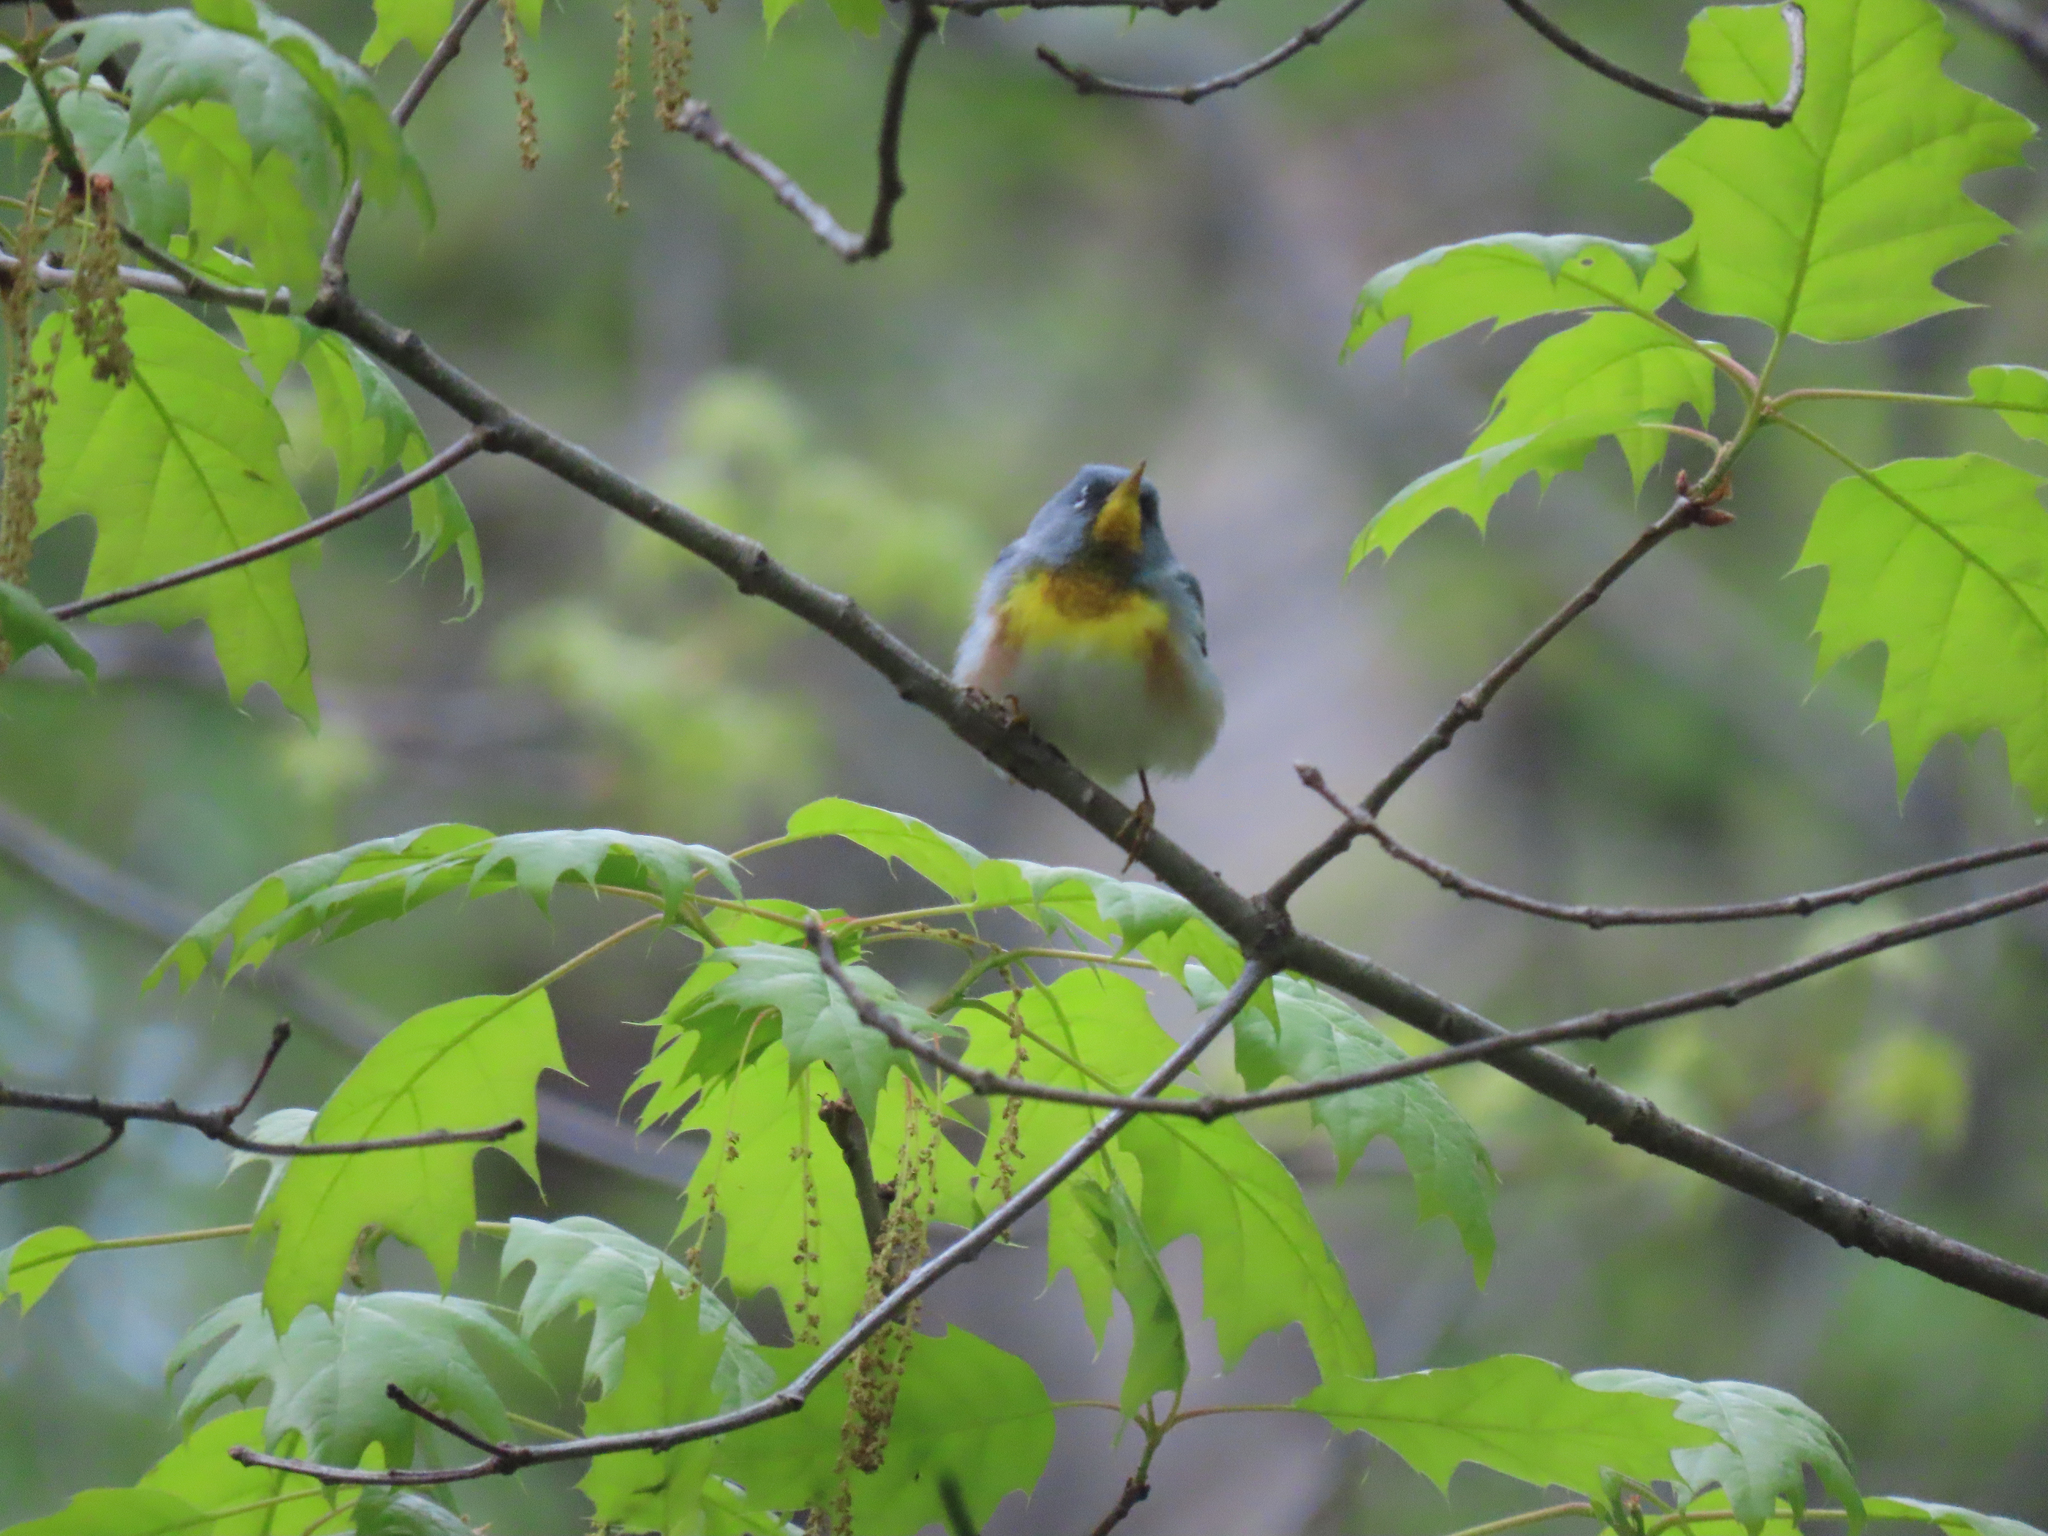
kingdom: Animalia
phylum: Chordata
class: Aves
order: Passeriformes
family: Parulidae
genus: Setophaga
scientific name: Setophaga americana
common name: Northern parula
